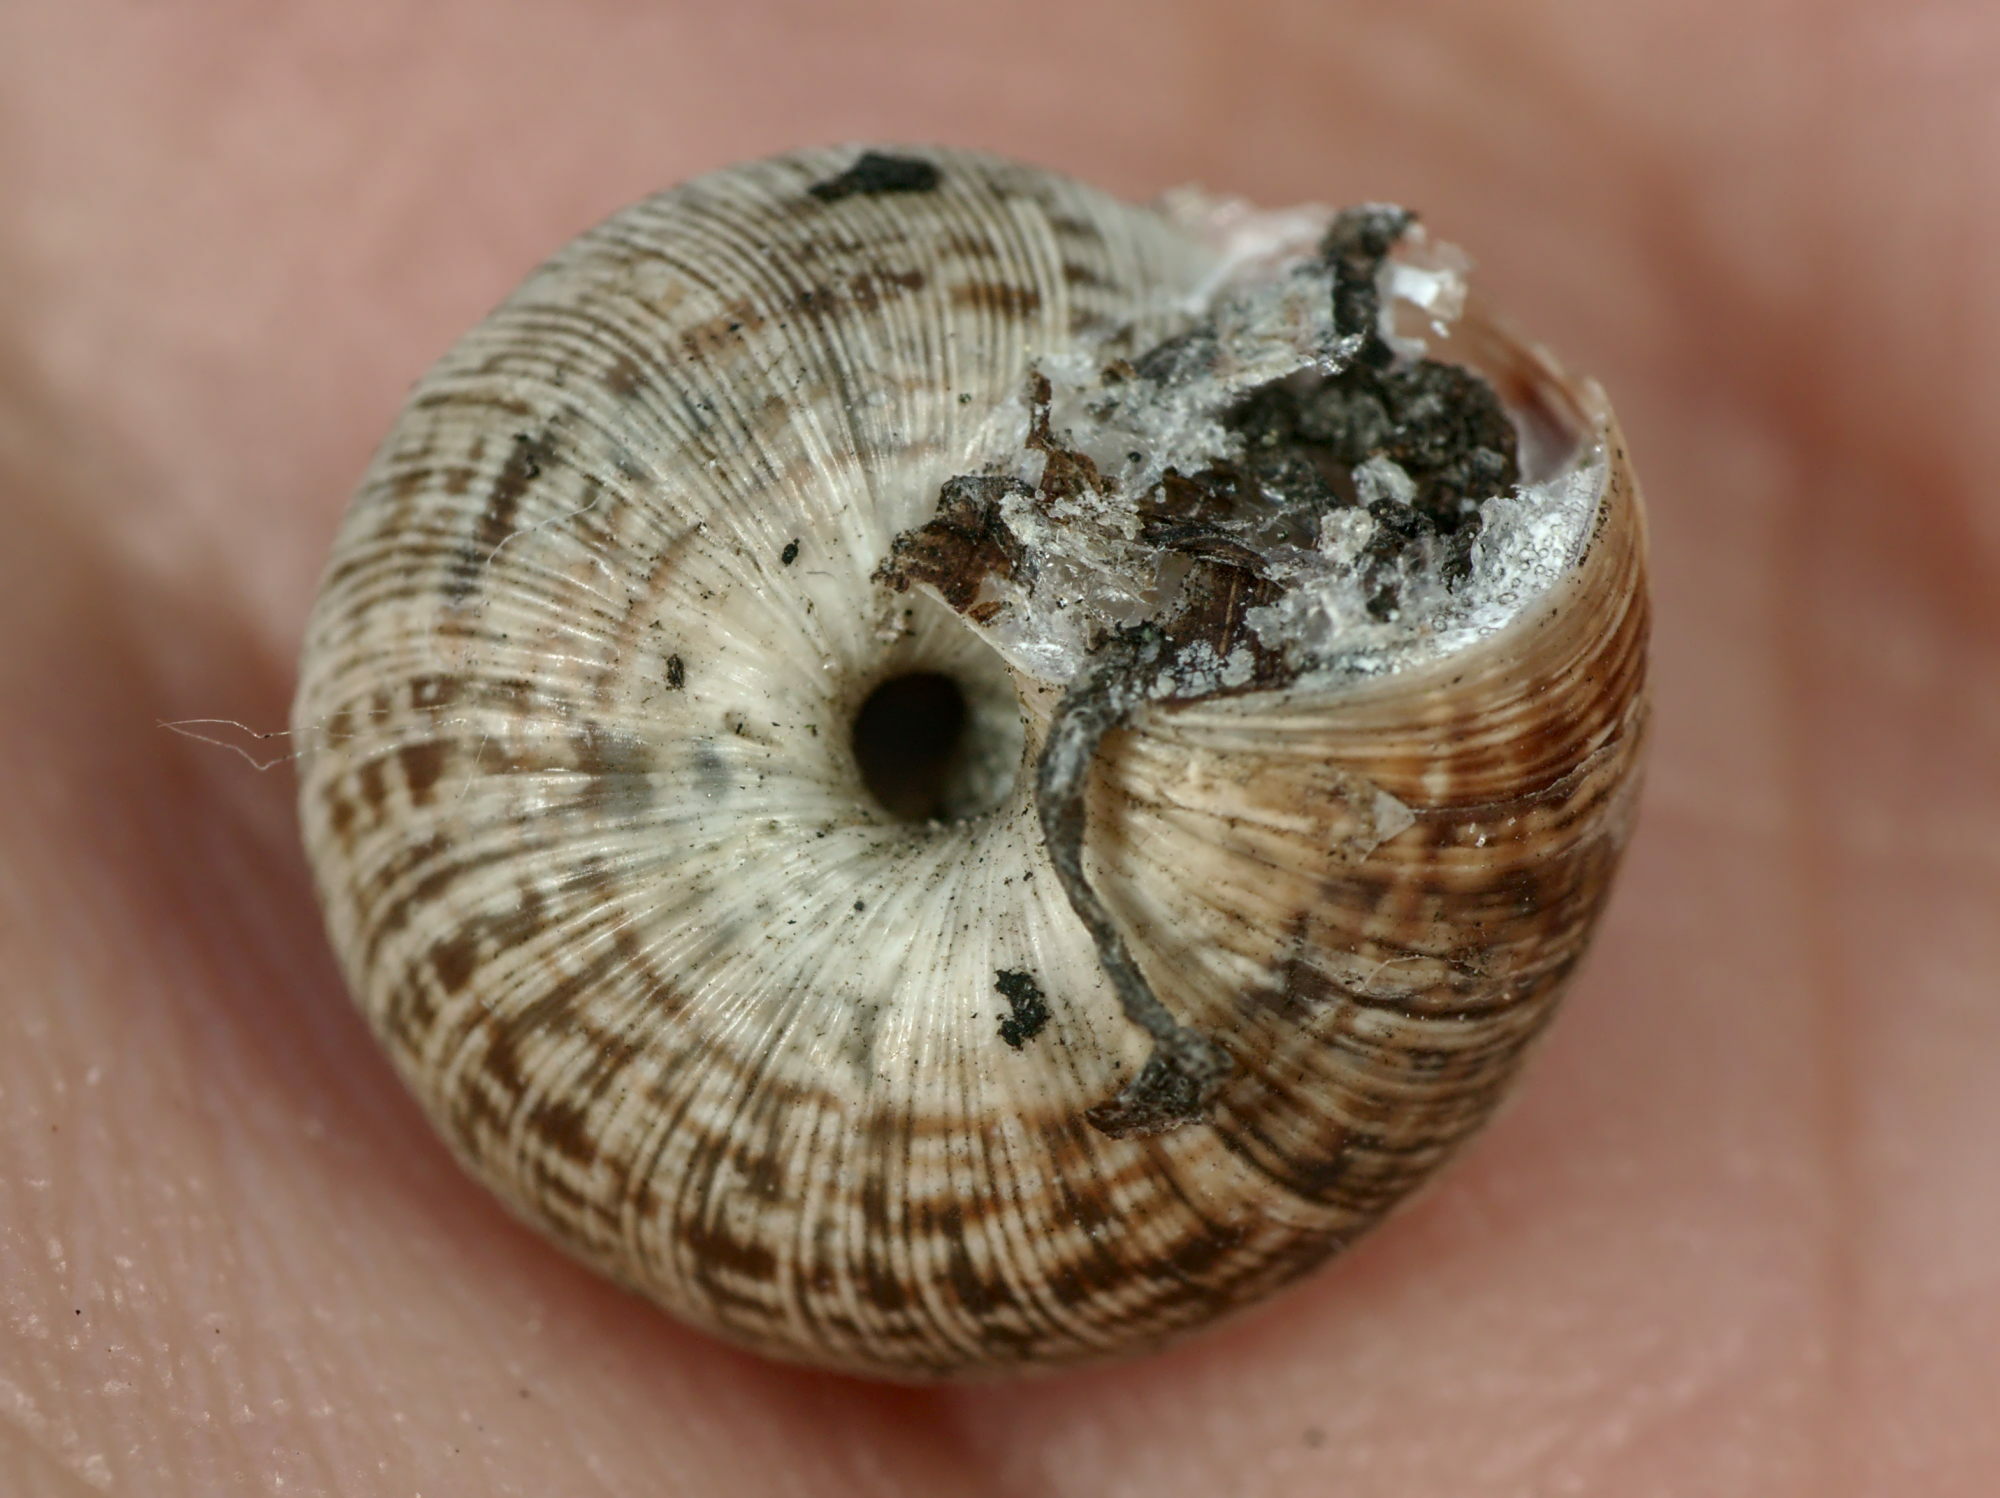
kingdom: Animalia
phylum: Mollusca
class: Gastropoda
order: Stylommatophora
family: Geomitridae
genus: Xeroplexa
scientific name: Xeroplexa intersecta
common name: Wrinkled snail
